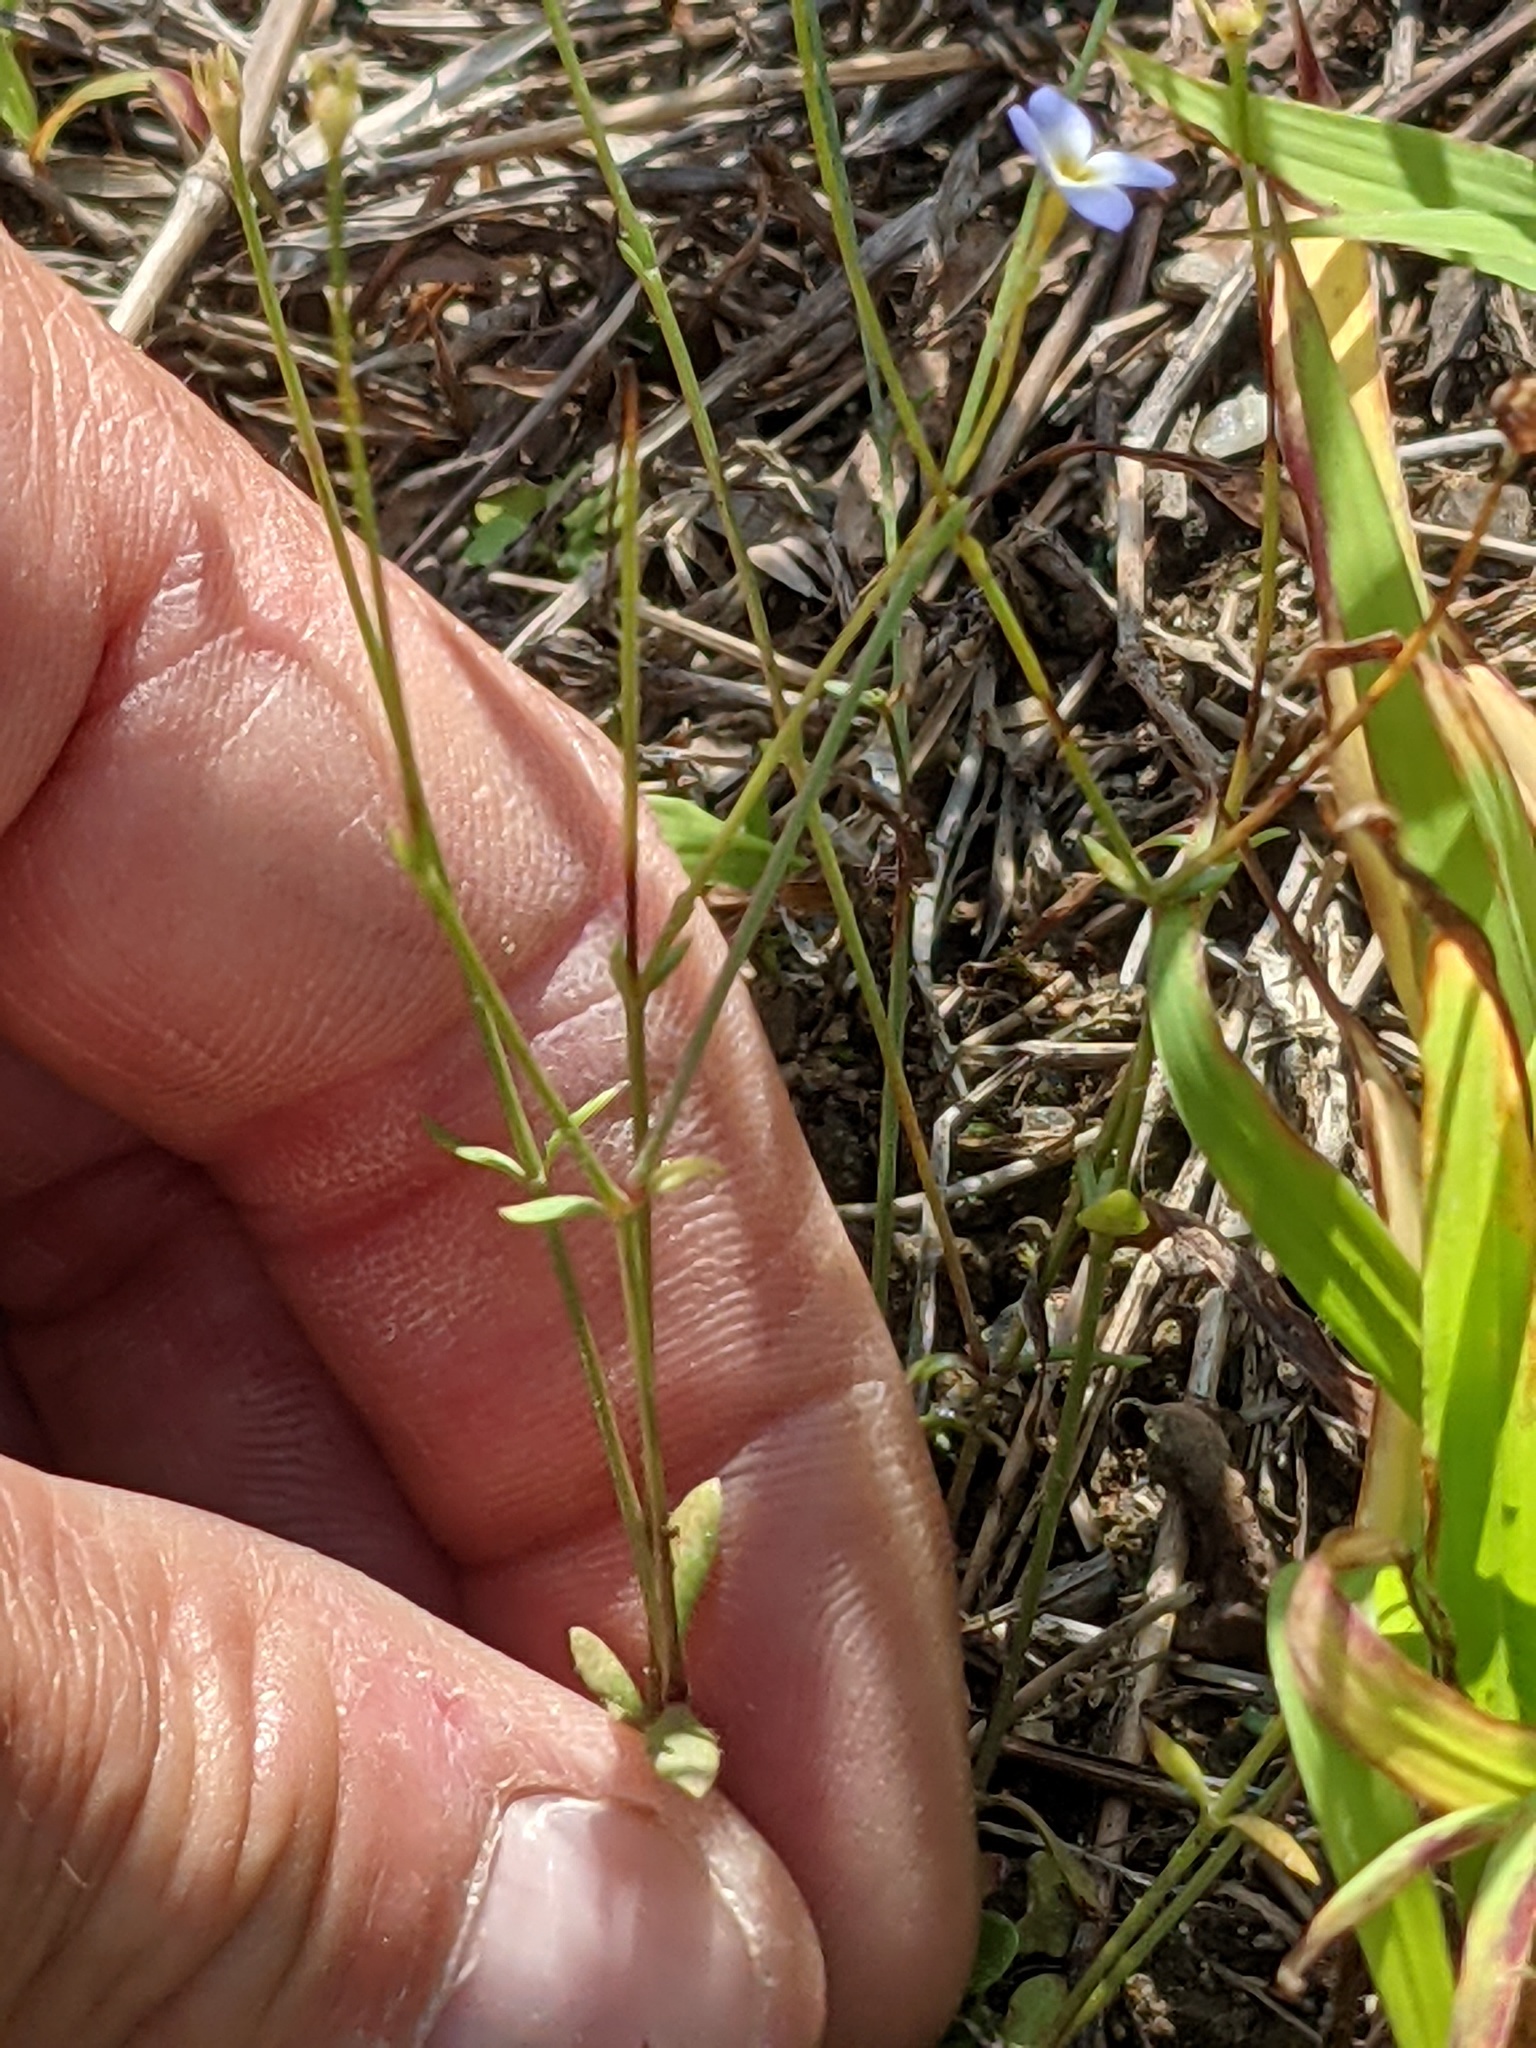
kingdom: Plantae
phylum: Tracheophyta
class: Magnoliopsida
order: Gentianales
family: Rubiaceae
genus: Houstonia
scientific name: Houstonia caerulea
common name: Bluets
